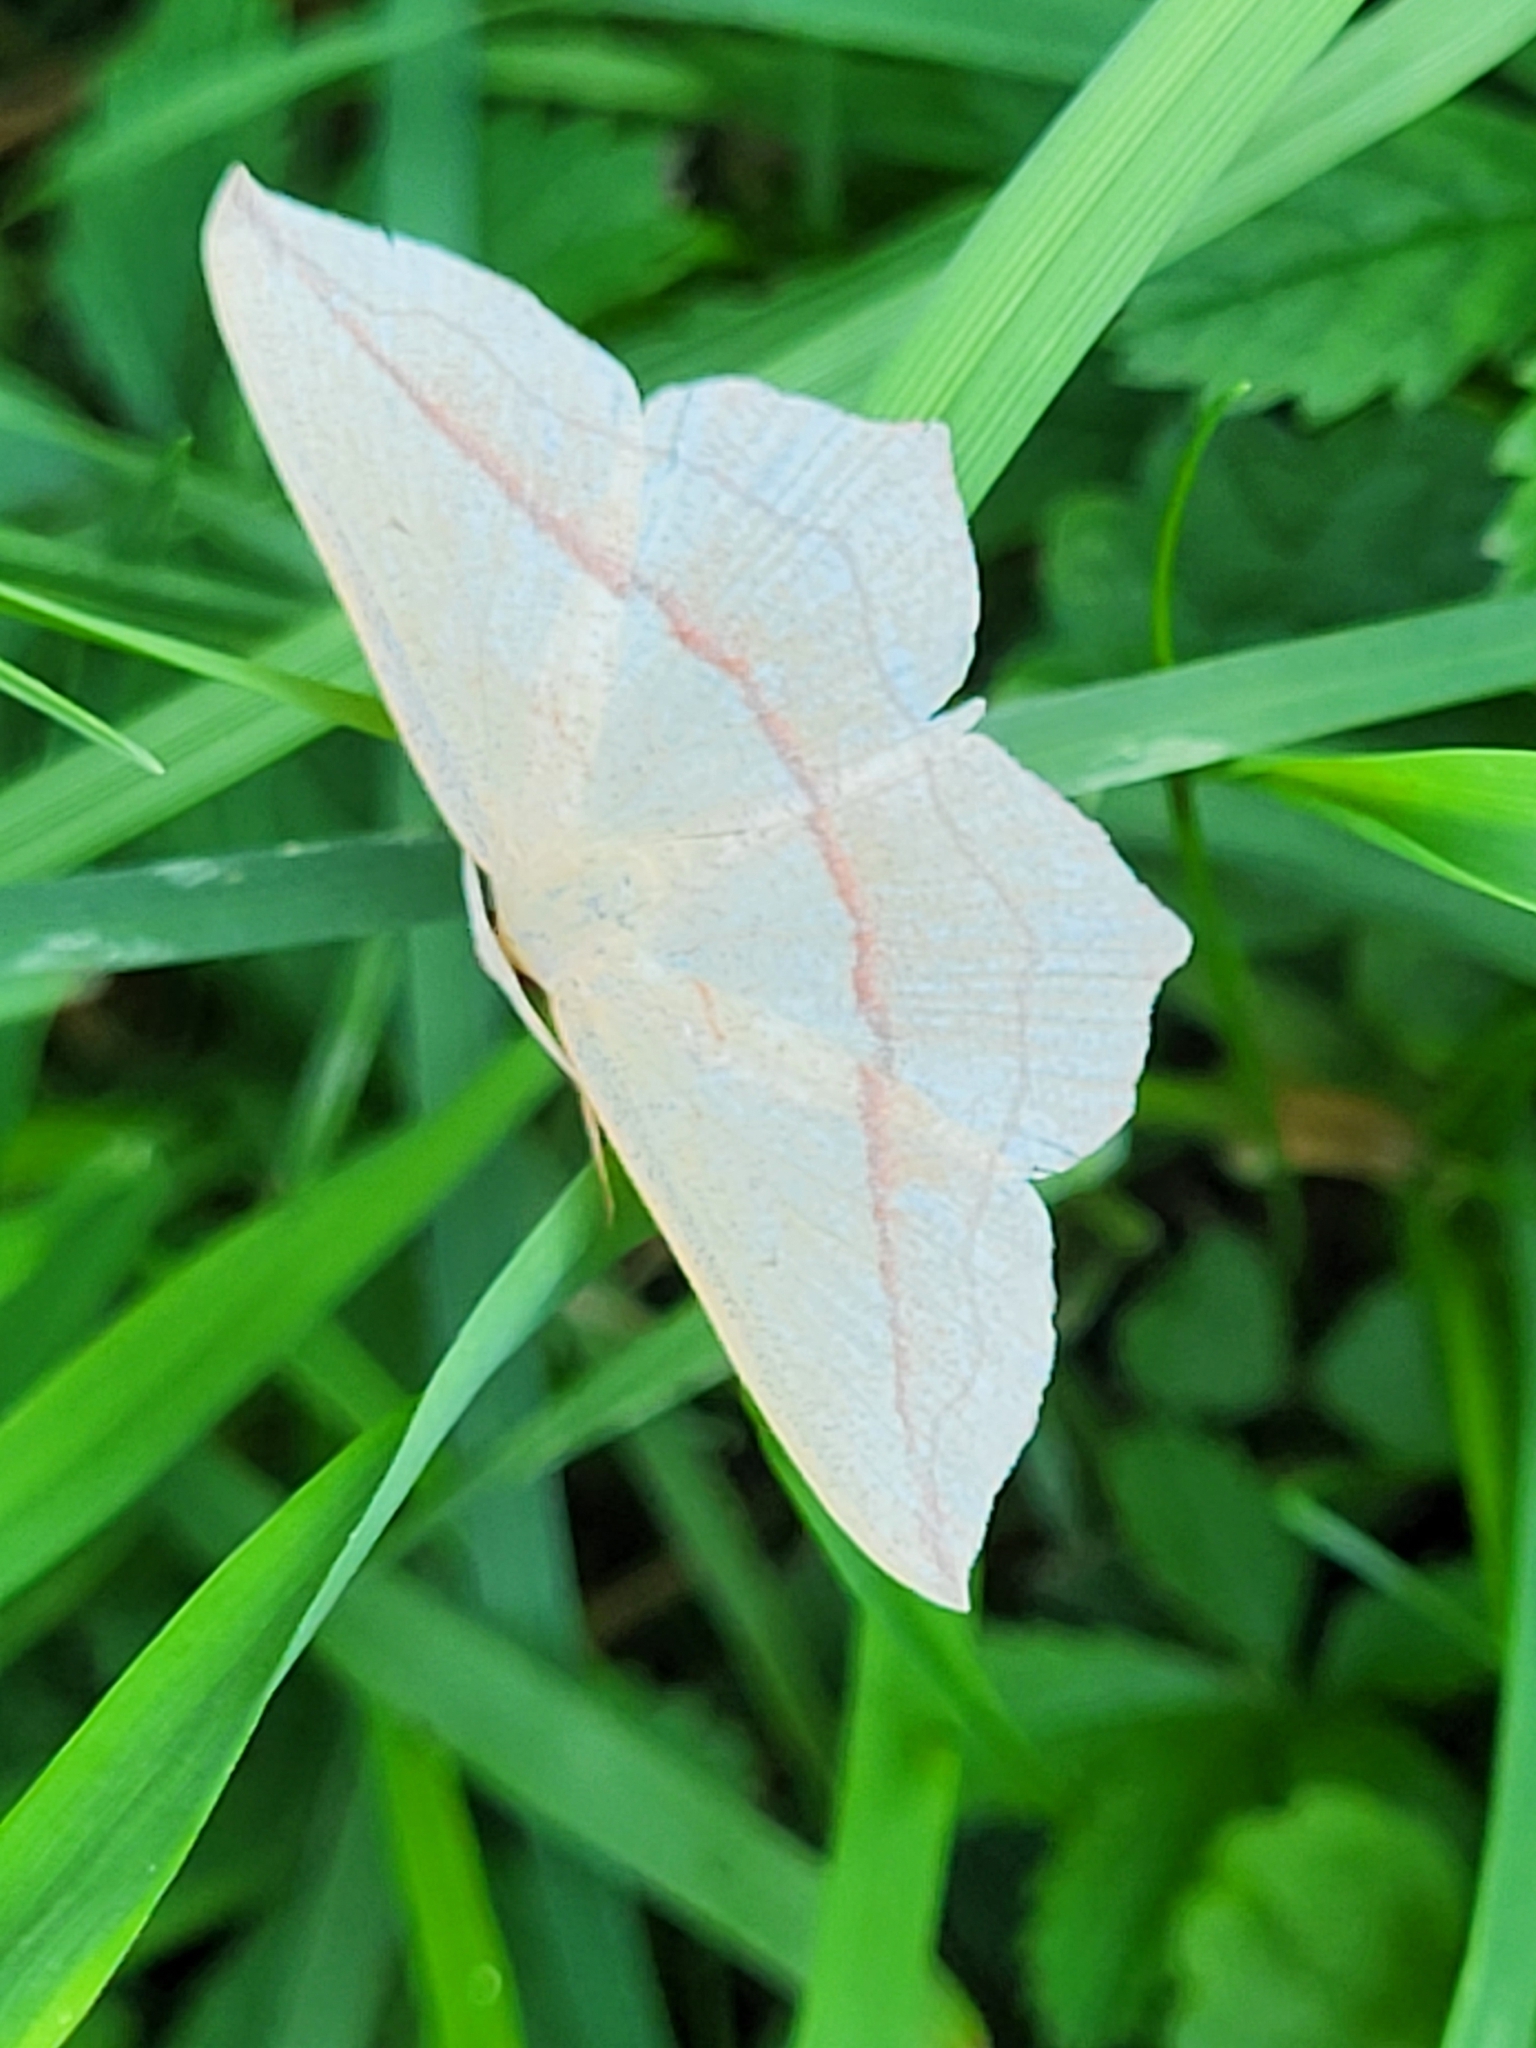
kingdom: Animalia
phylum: Arthropoda
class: Insecta
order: Lepidoptera
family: Geometridae
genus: Timandra
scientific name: Timandra comae
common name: Blood-vein
